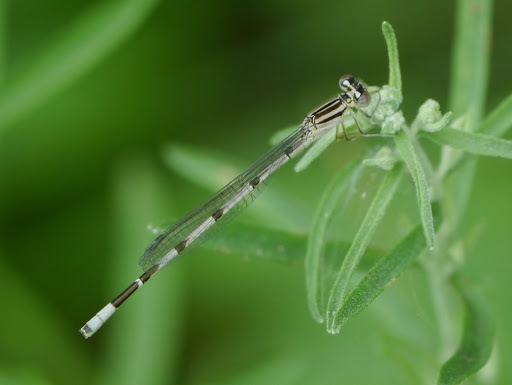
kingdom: Animalia
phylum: Arthropoda
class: Insecta
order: Odonata
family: Coenagrionidae
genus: Enallagma
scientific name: Enallagma durum
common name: Big bluet
